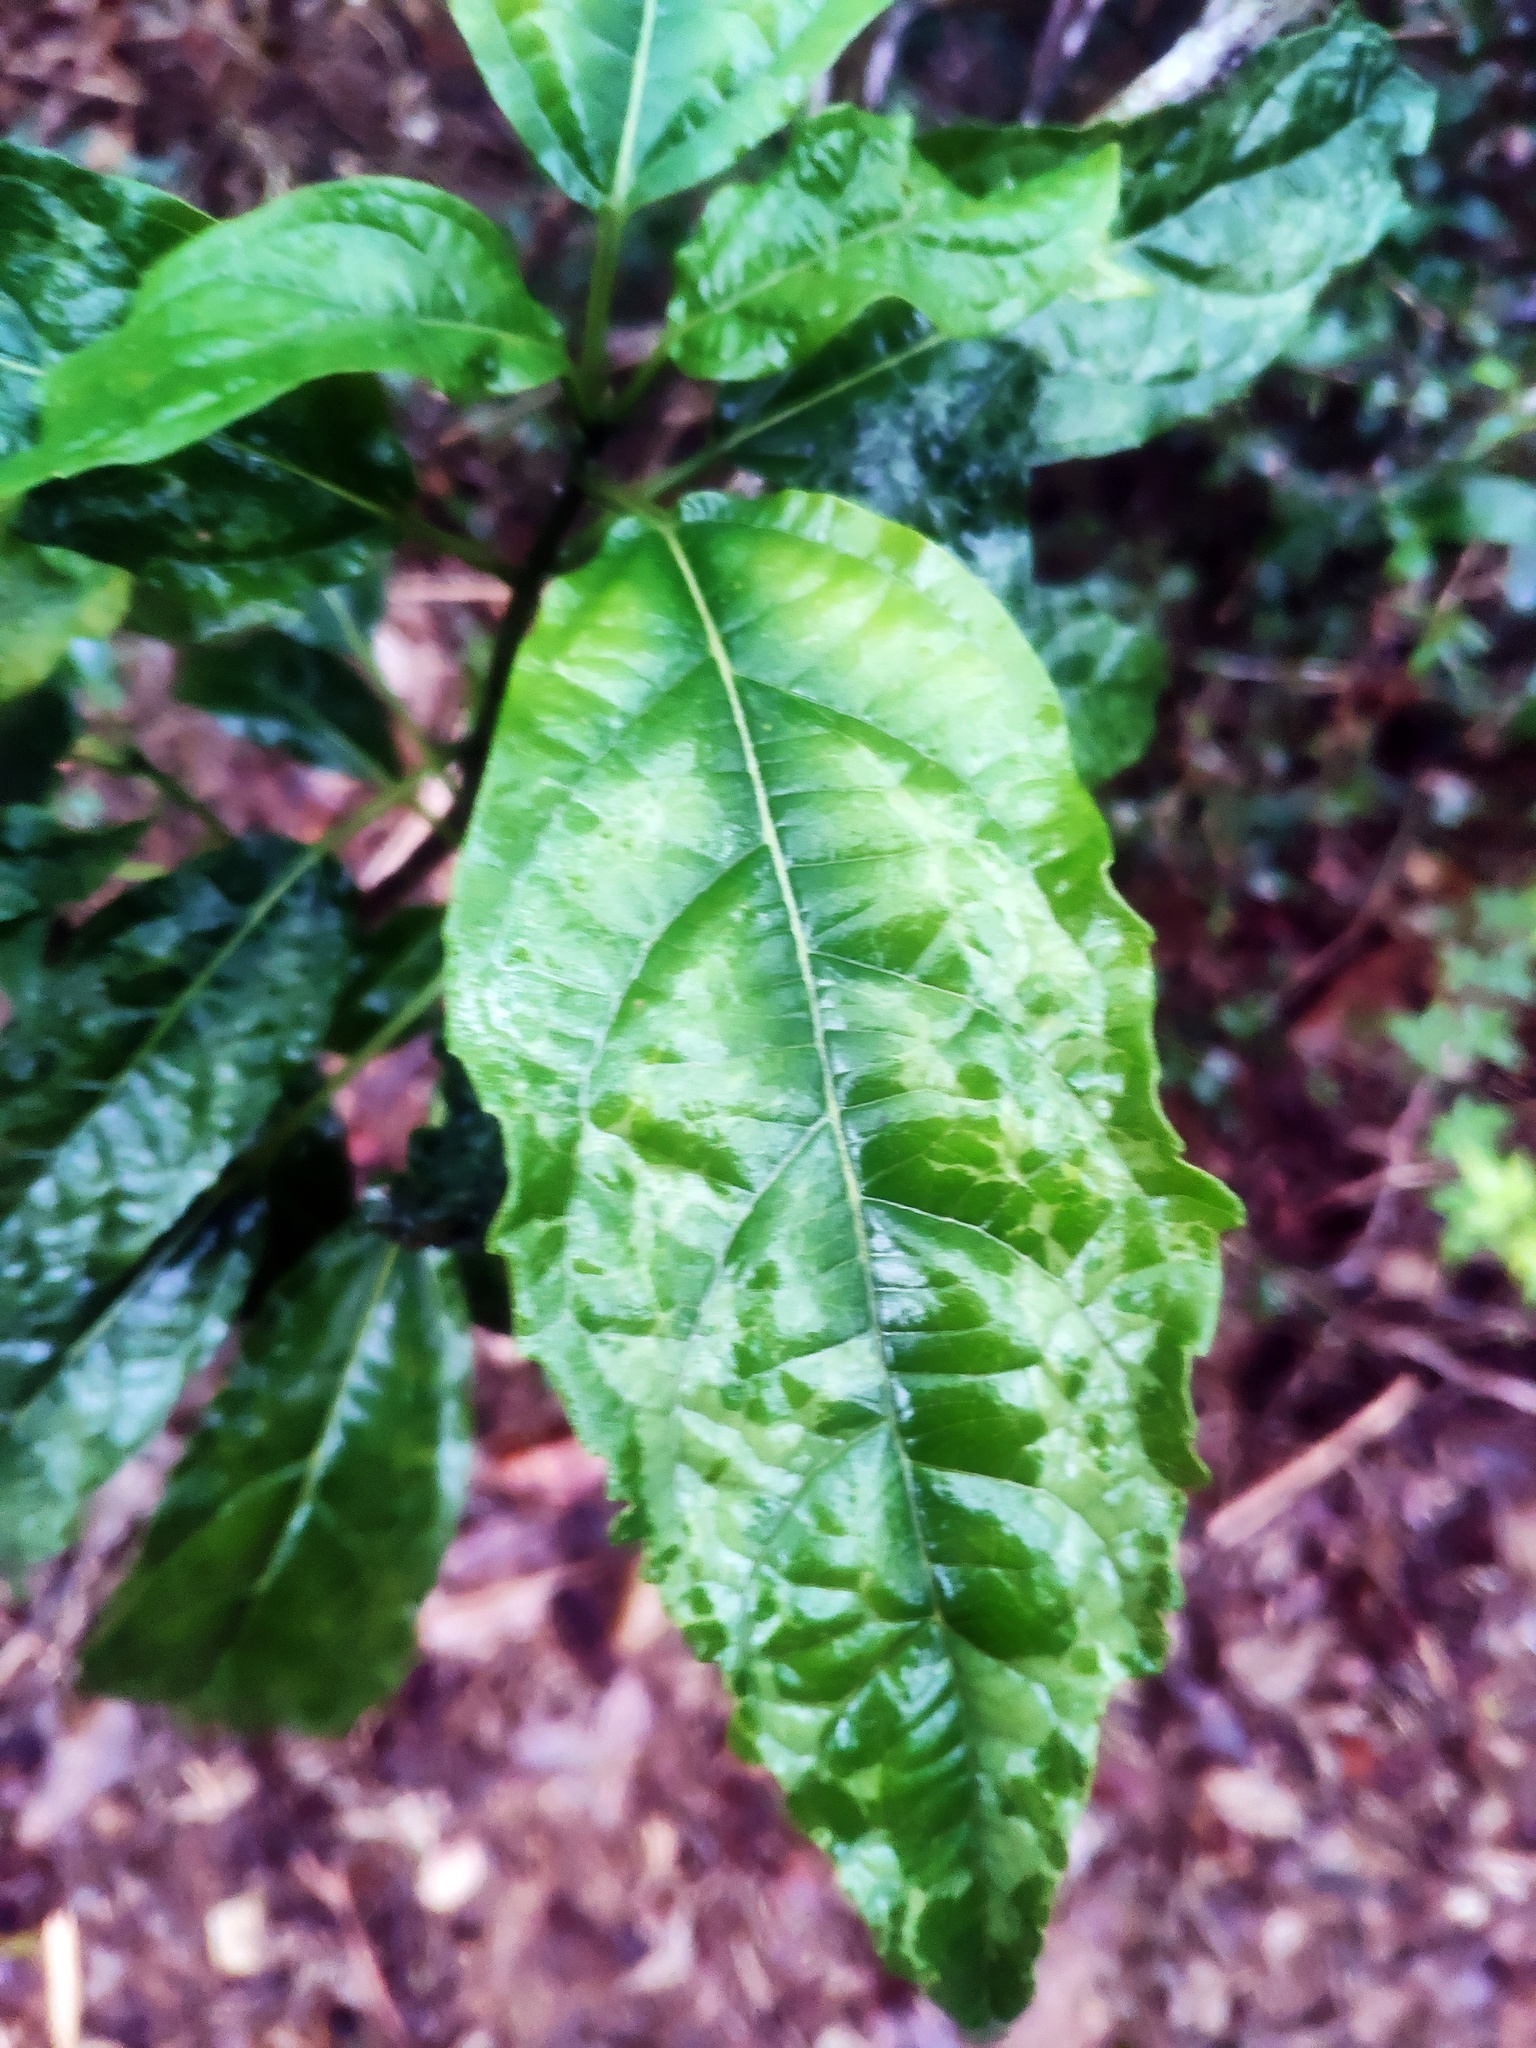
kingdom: Plantae
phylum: Tracheophyta
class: Magnoliopsida
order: Lamiales
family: Lamiaceae
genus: Clerodendrum
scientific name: Clerodendrum cyrtophyllum
